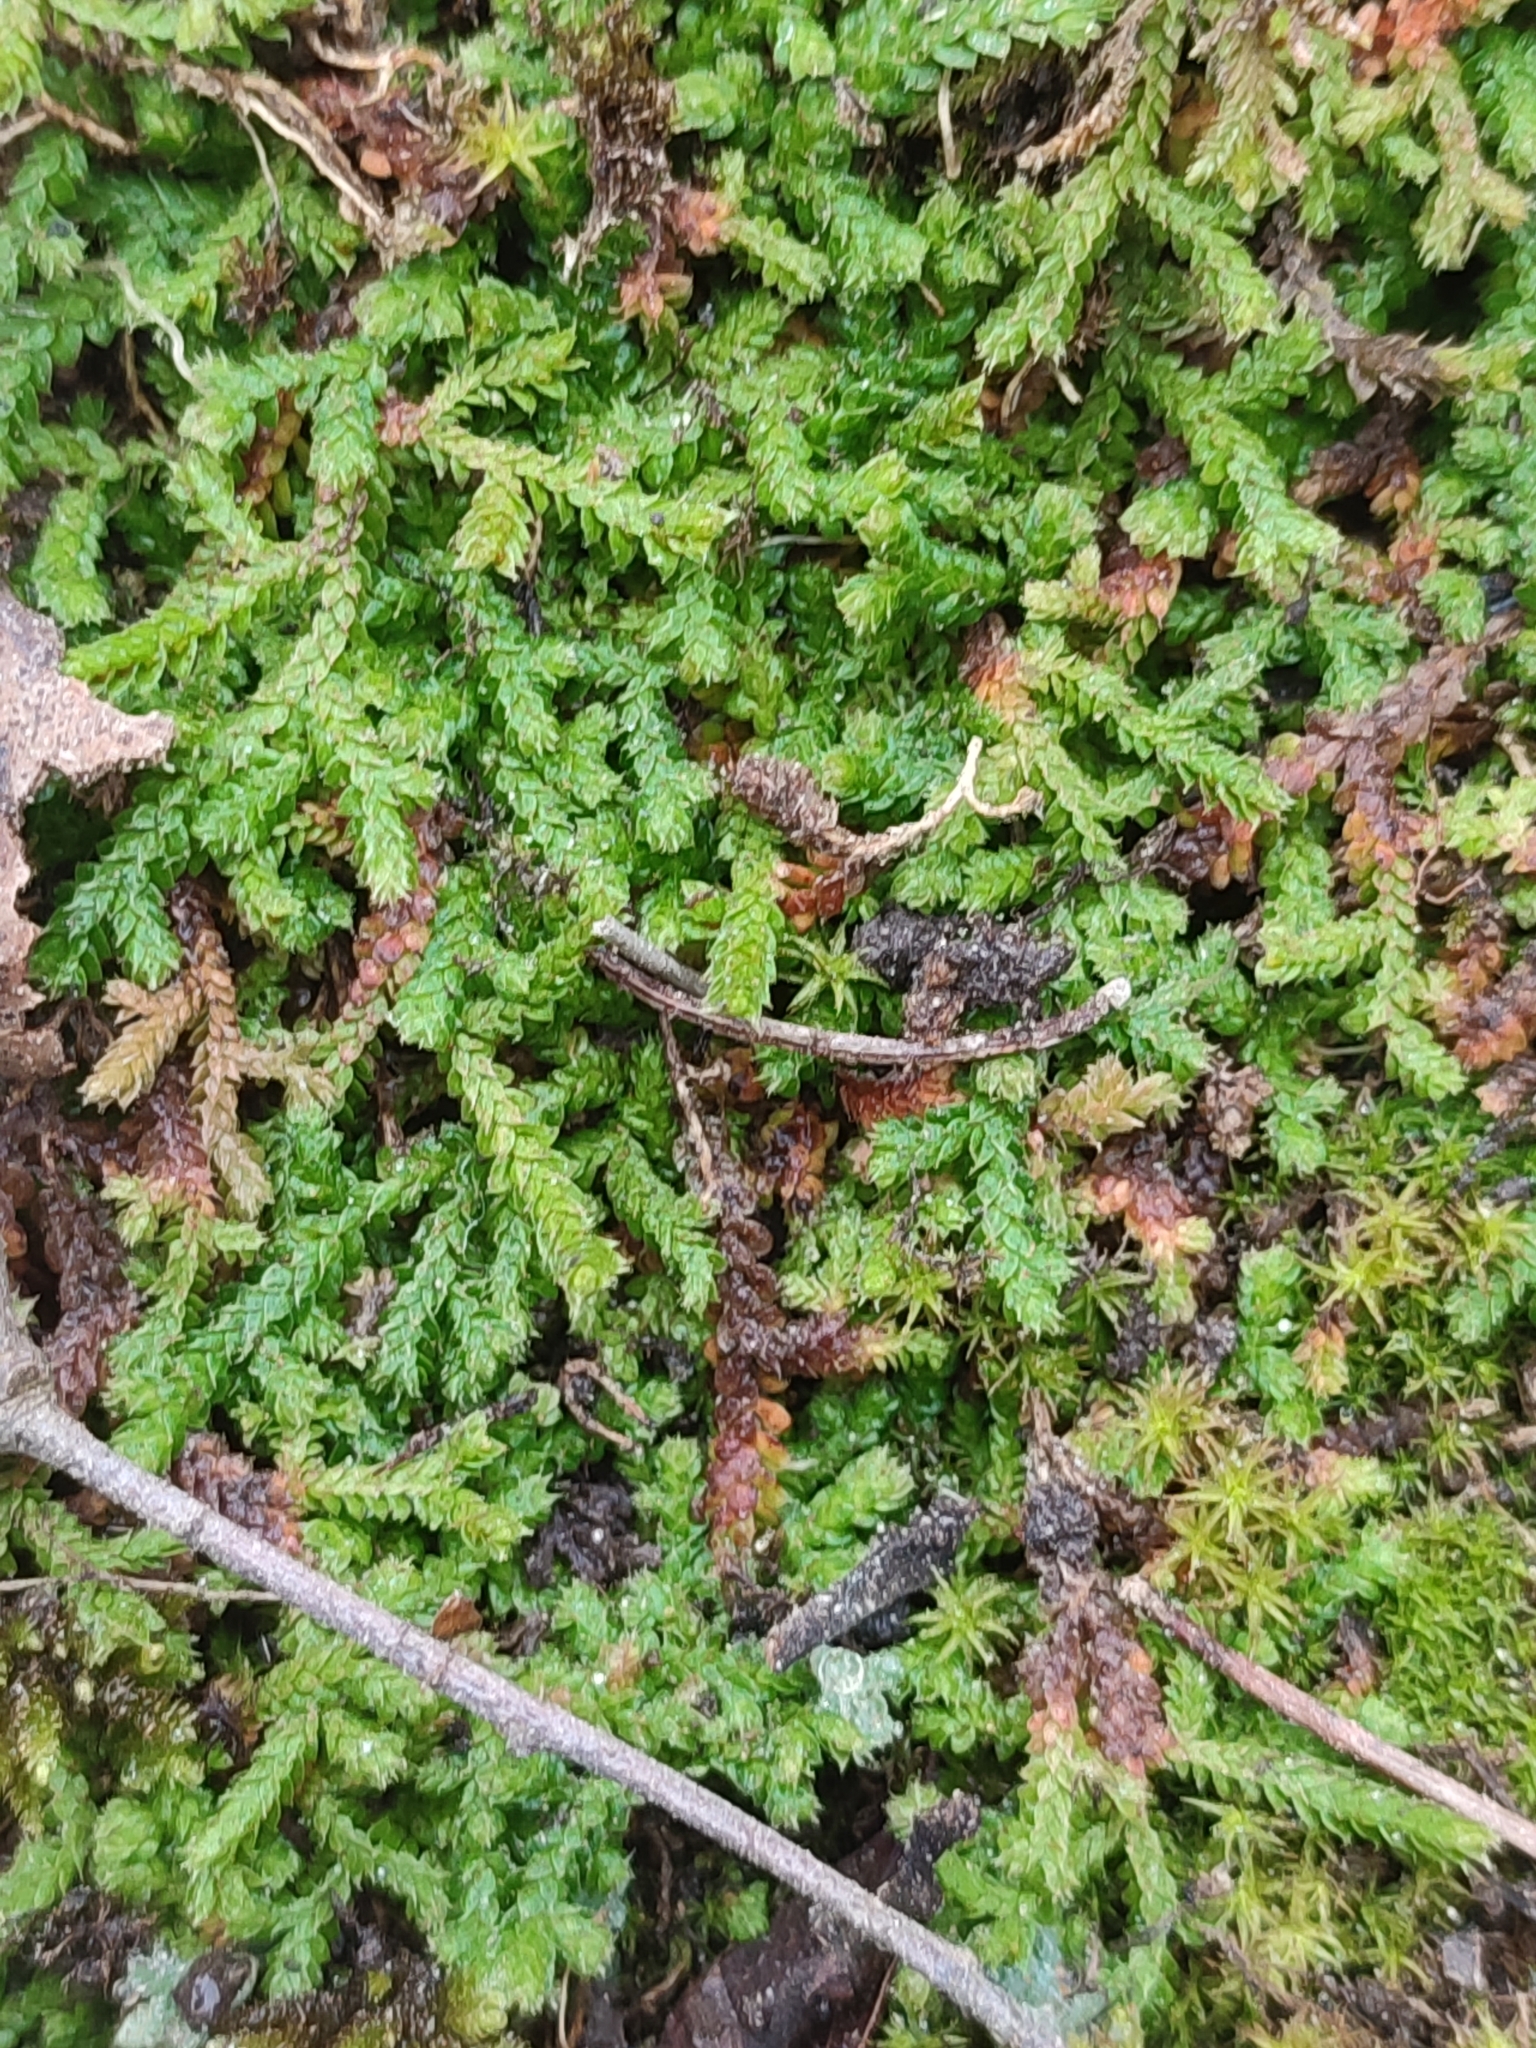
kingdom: Plantae
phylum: Tracheophyta
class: Lycopodiopsida
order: Selaginellales
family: Selaginellaceae
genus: Selaginella
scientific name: Selaginella denticulata
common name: Toothed-leaved clubmoss
